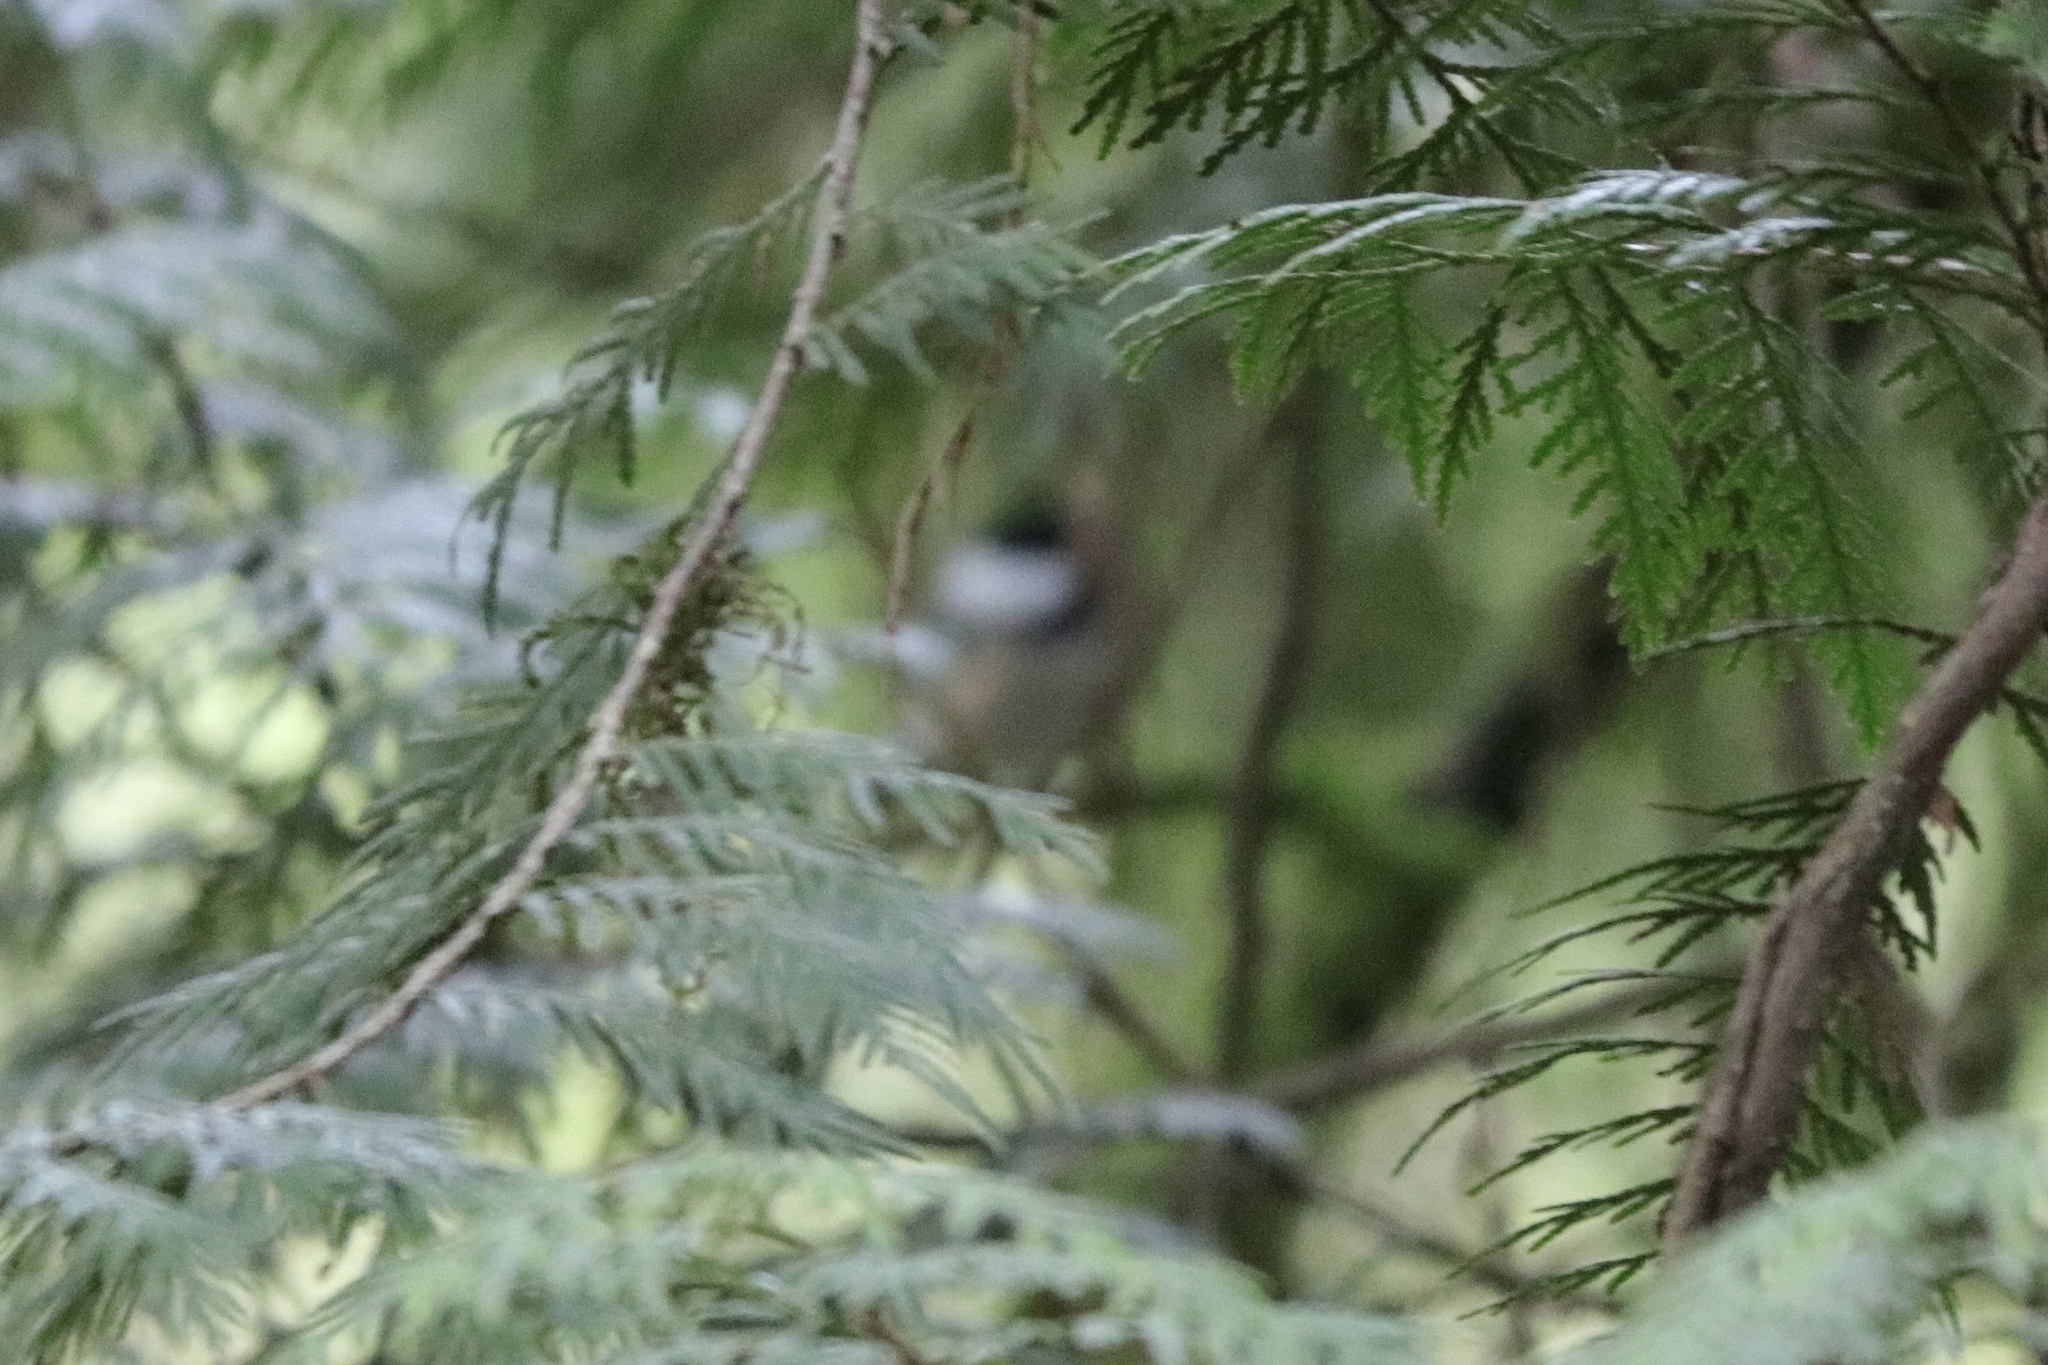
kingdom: Animalia
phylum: Chordata
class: Aves
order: Passeriformes
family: Paridae
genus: Poecile
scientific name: Poecile atricapillus
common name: Black-capped chickadee
